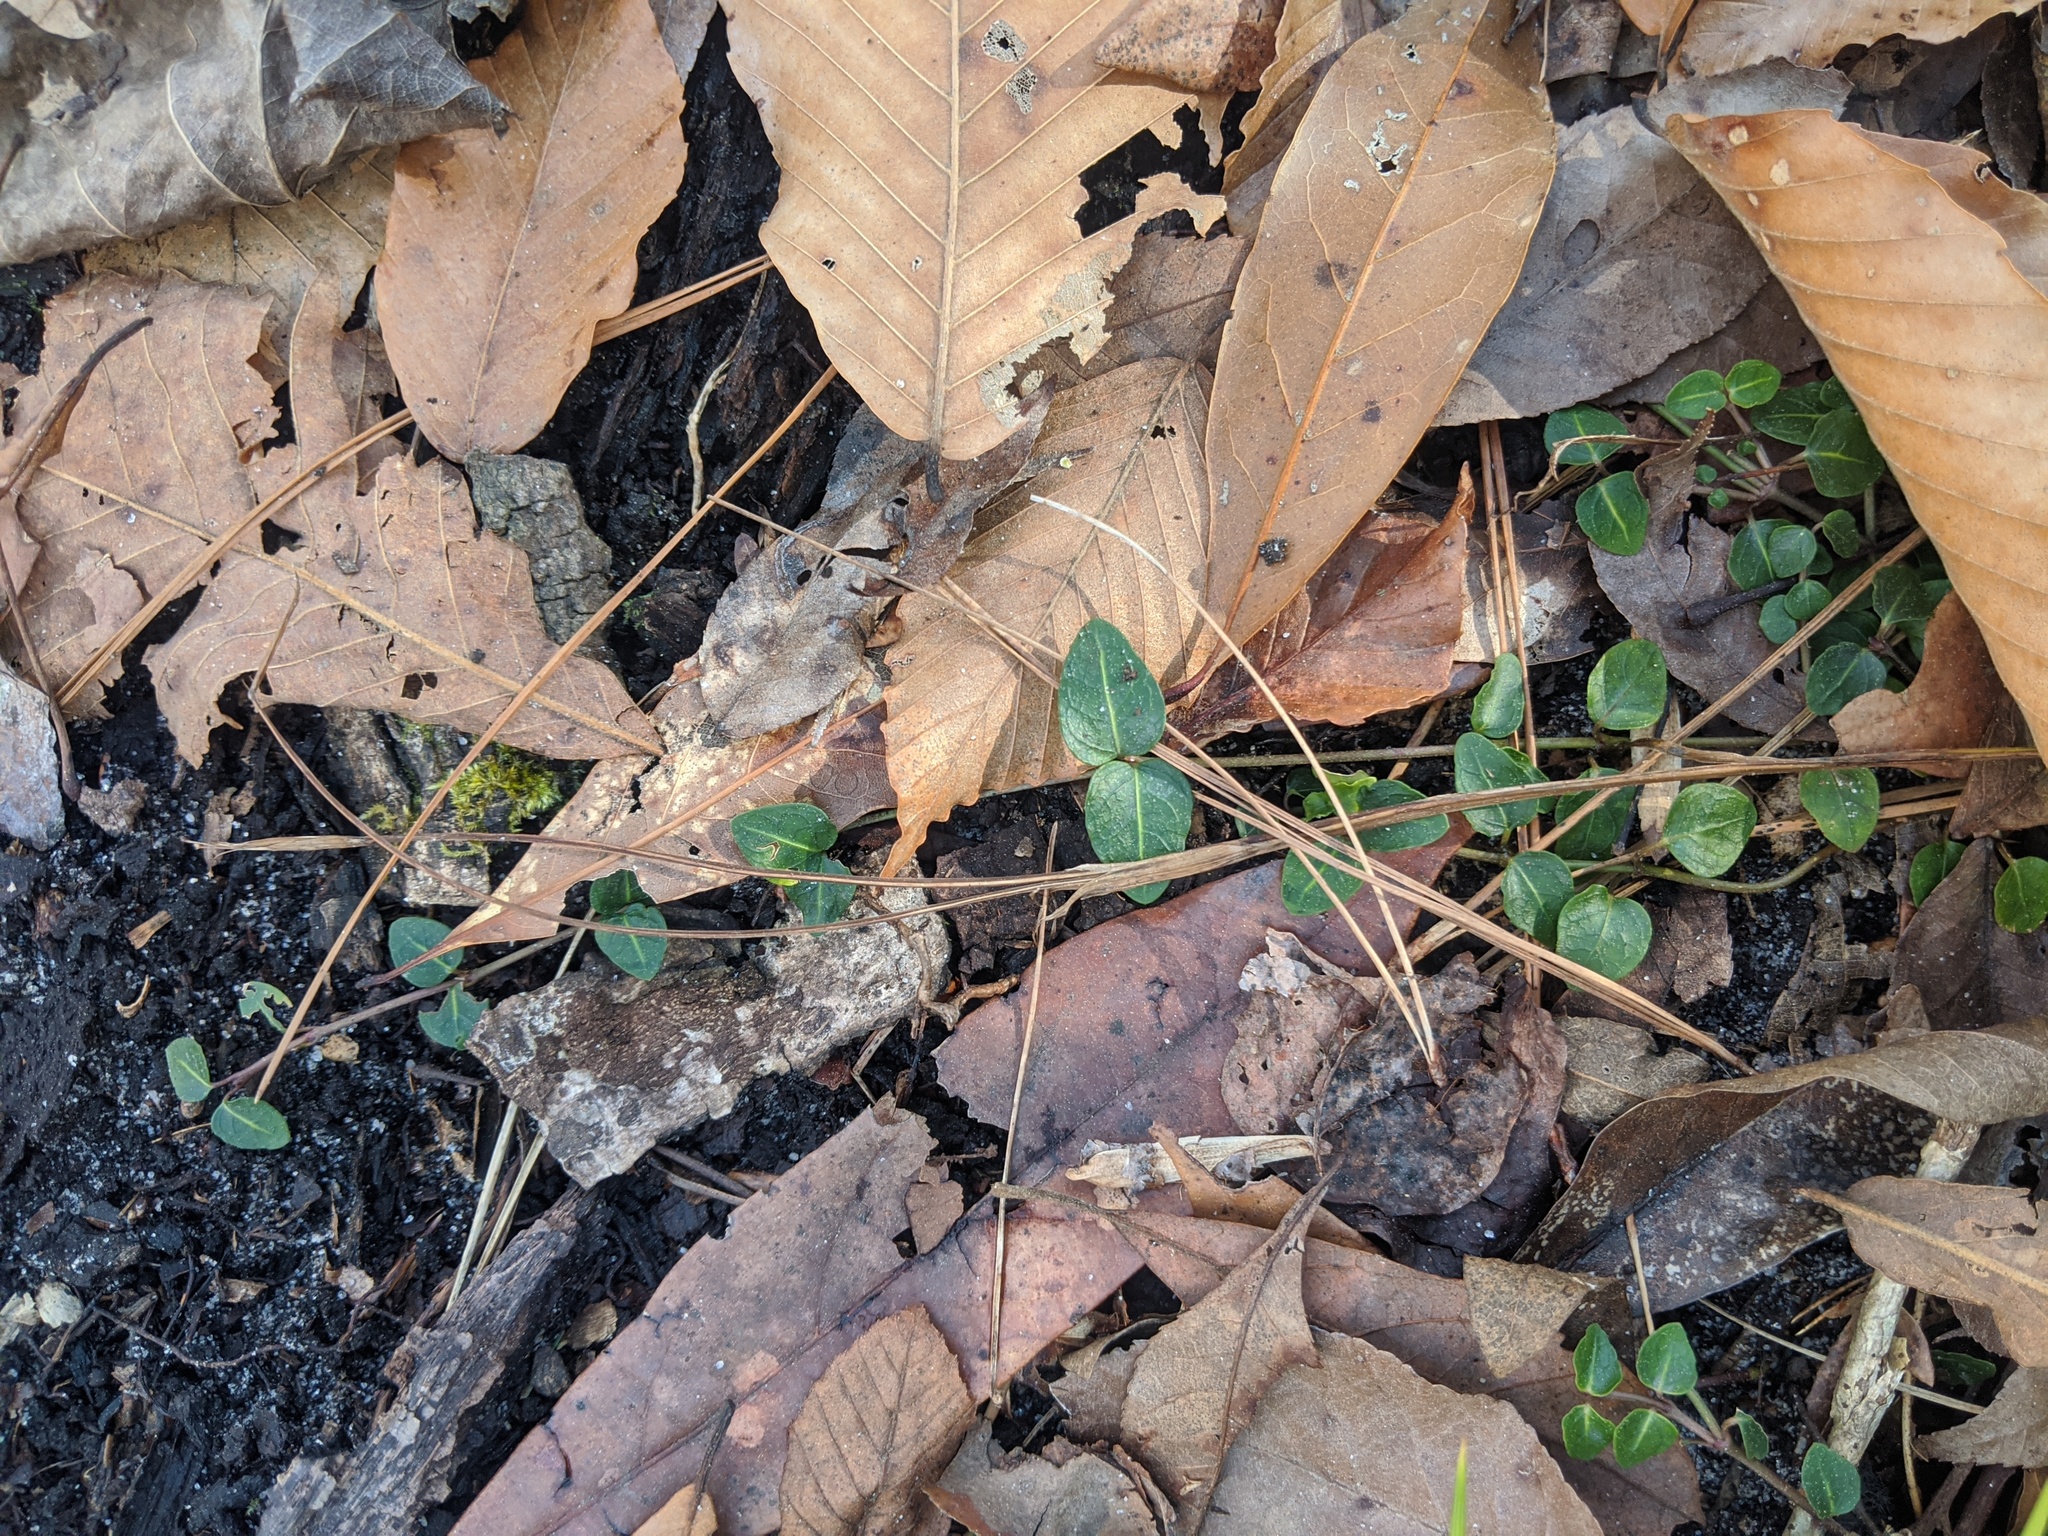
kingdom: Plantae
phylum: Tracheophyta
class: Magnoliopsida
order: Gentianales
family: Rubiaceae
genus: Mitchella
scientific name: Mitchella repens
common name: Partridge-berry
